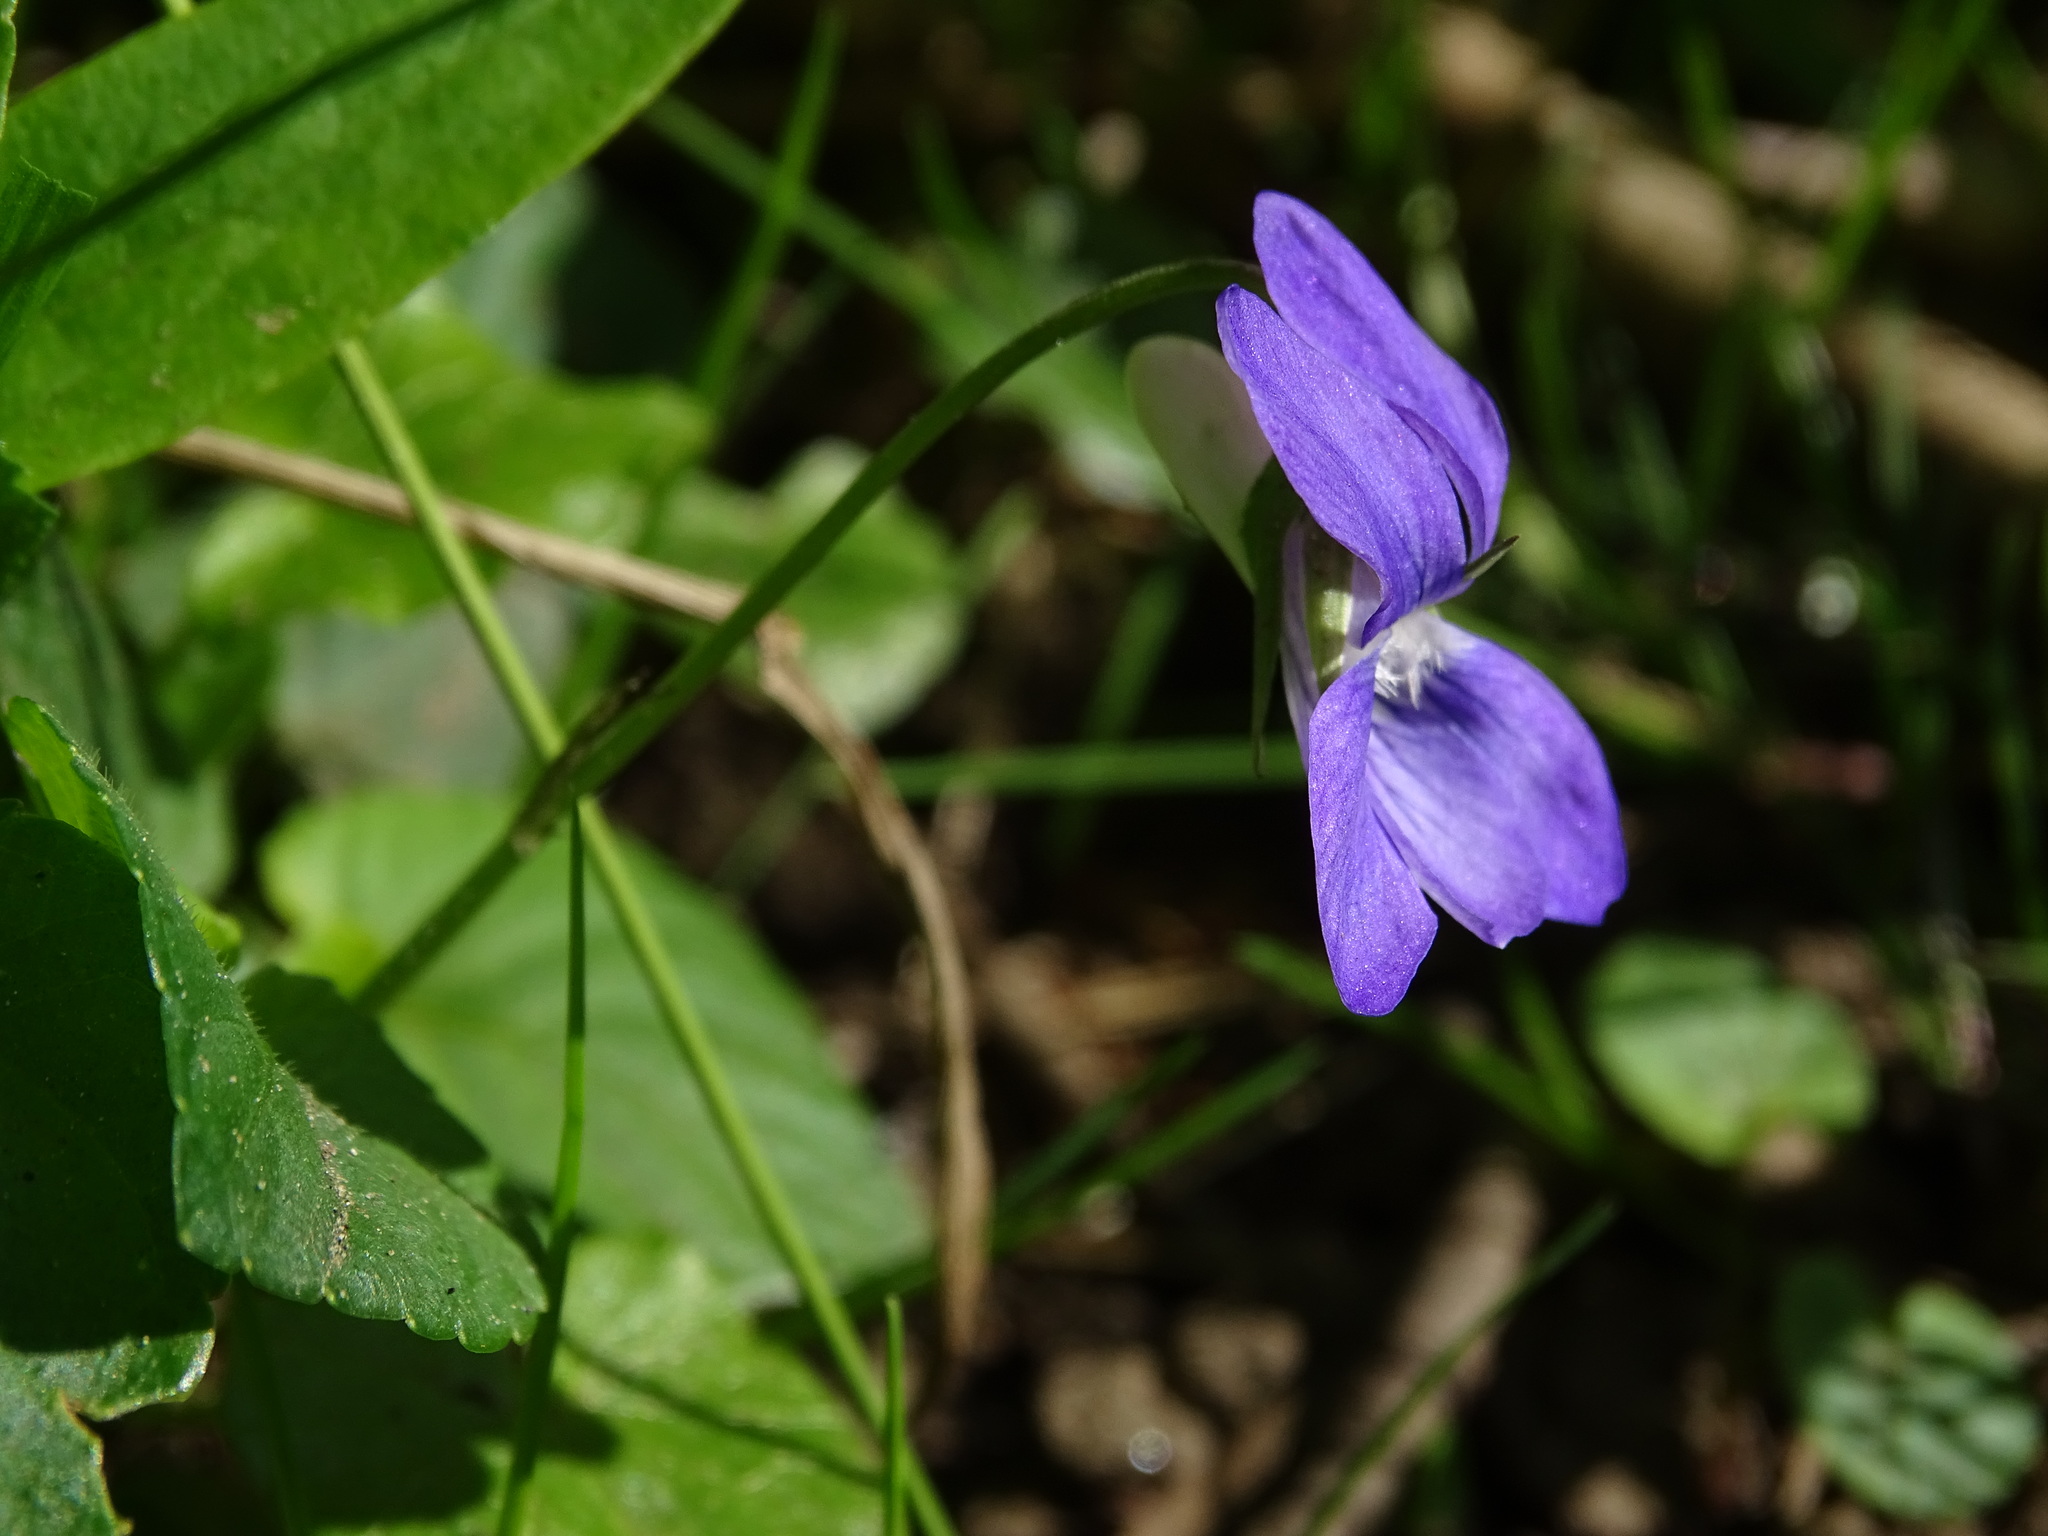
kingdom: Plantae
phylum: Tracheophyta
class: Magnoliopsida
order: Malpighiales
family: Violaceae
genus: Viola
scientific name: Viola riviniana
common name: Common dog-violet
